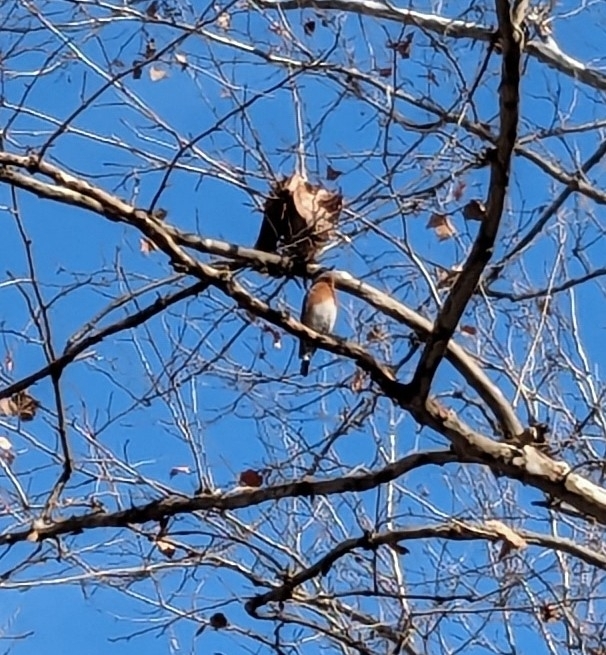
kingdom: Animalia
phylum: Chordata
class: Aves
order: Passeriformes
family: Turdidae
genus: Sialia
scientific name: Sialia sialis
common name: Eastern bluebird
